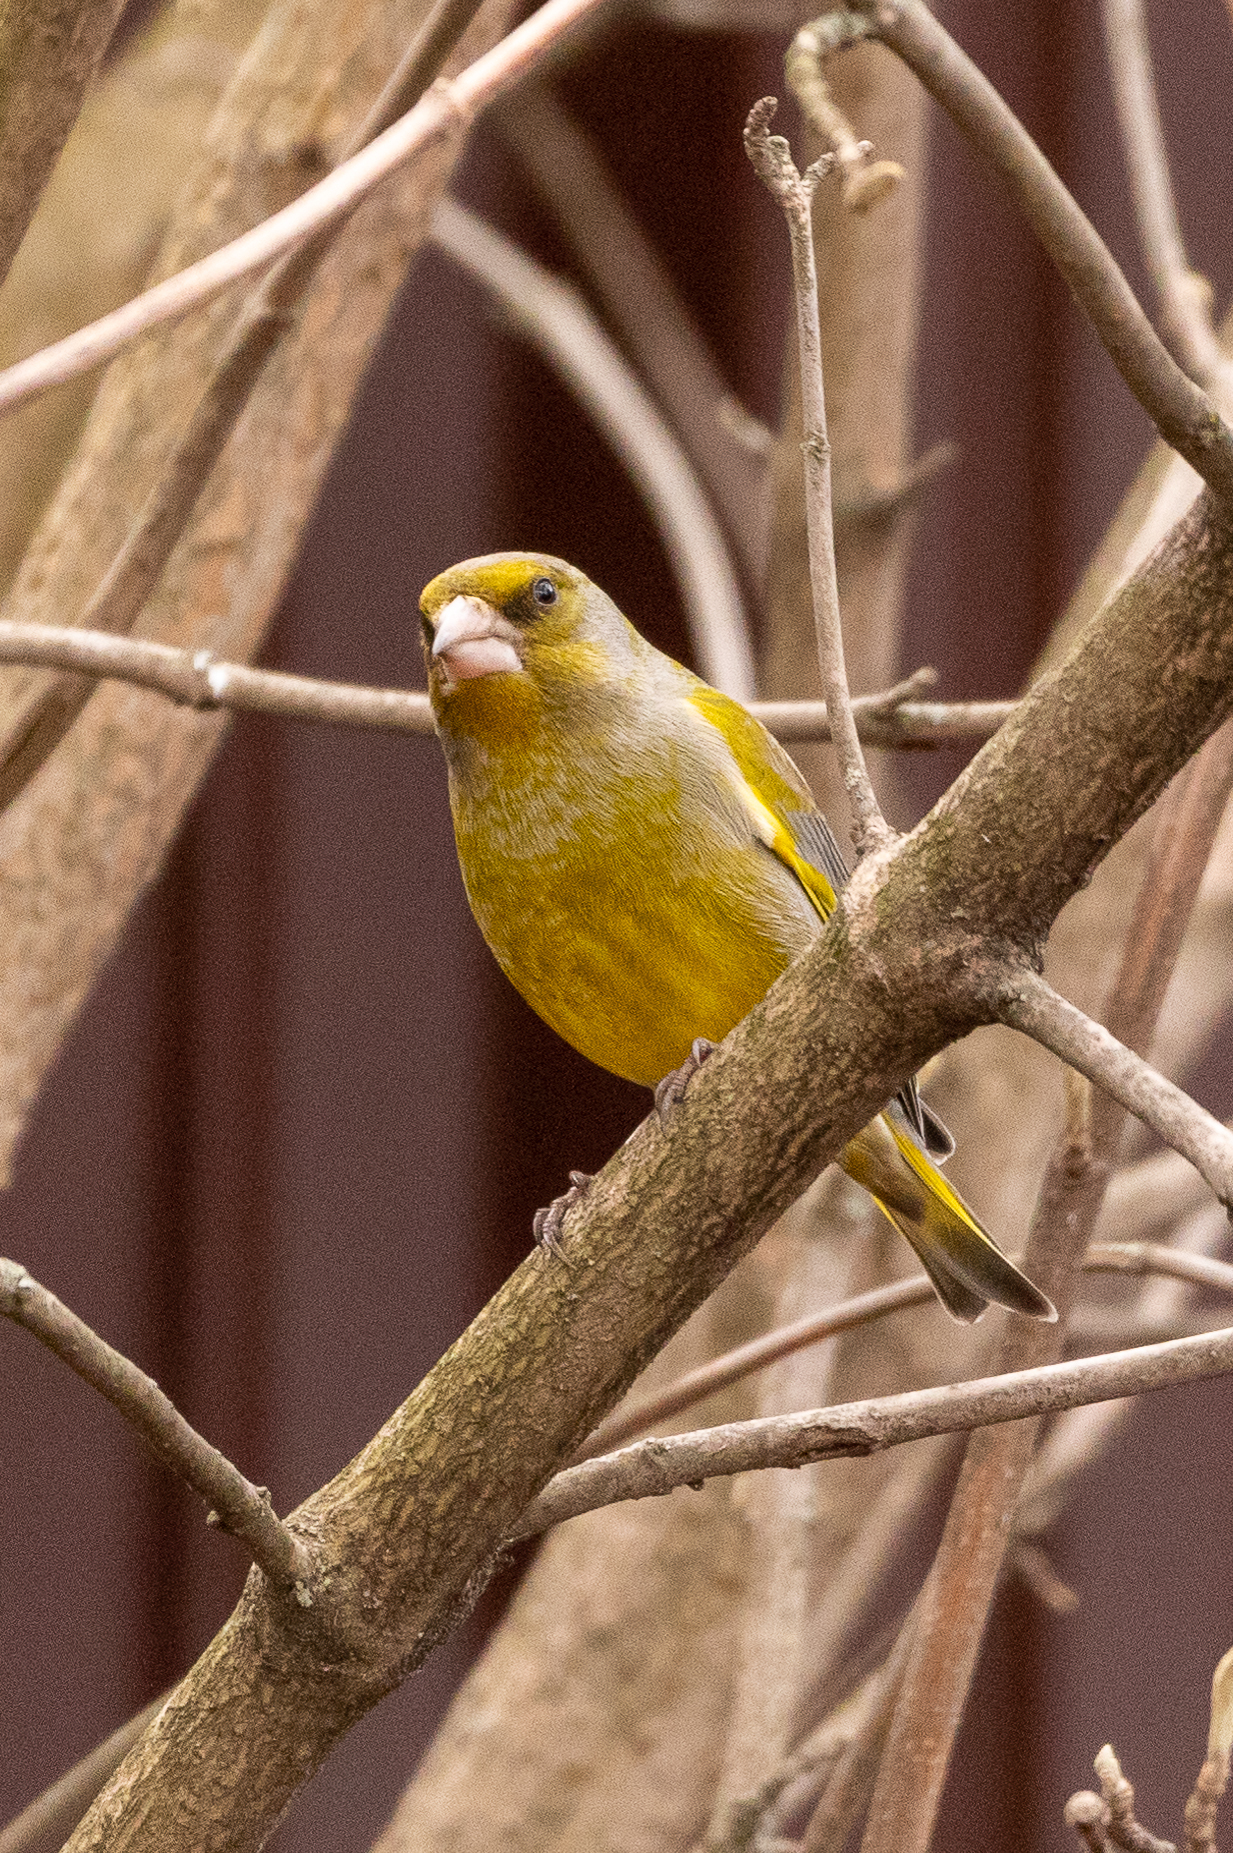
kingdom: Plantae
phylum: Tracheophyta
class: Liliopsida
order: Poales
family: Poaceae
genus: Chloris
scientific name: Chloris chloris
